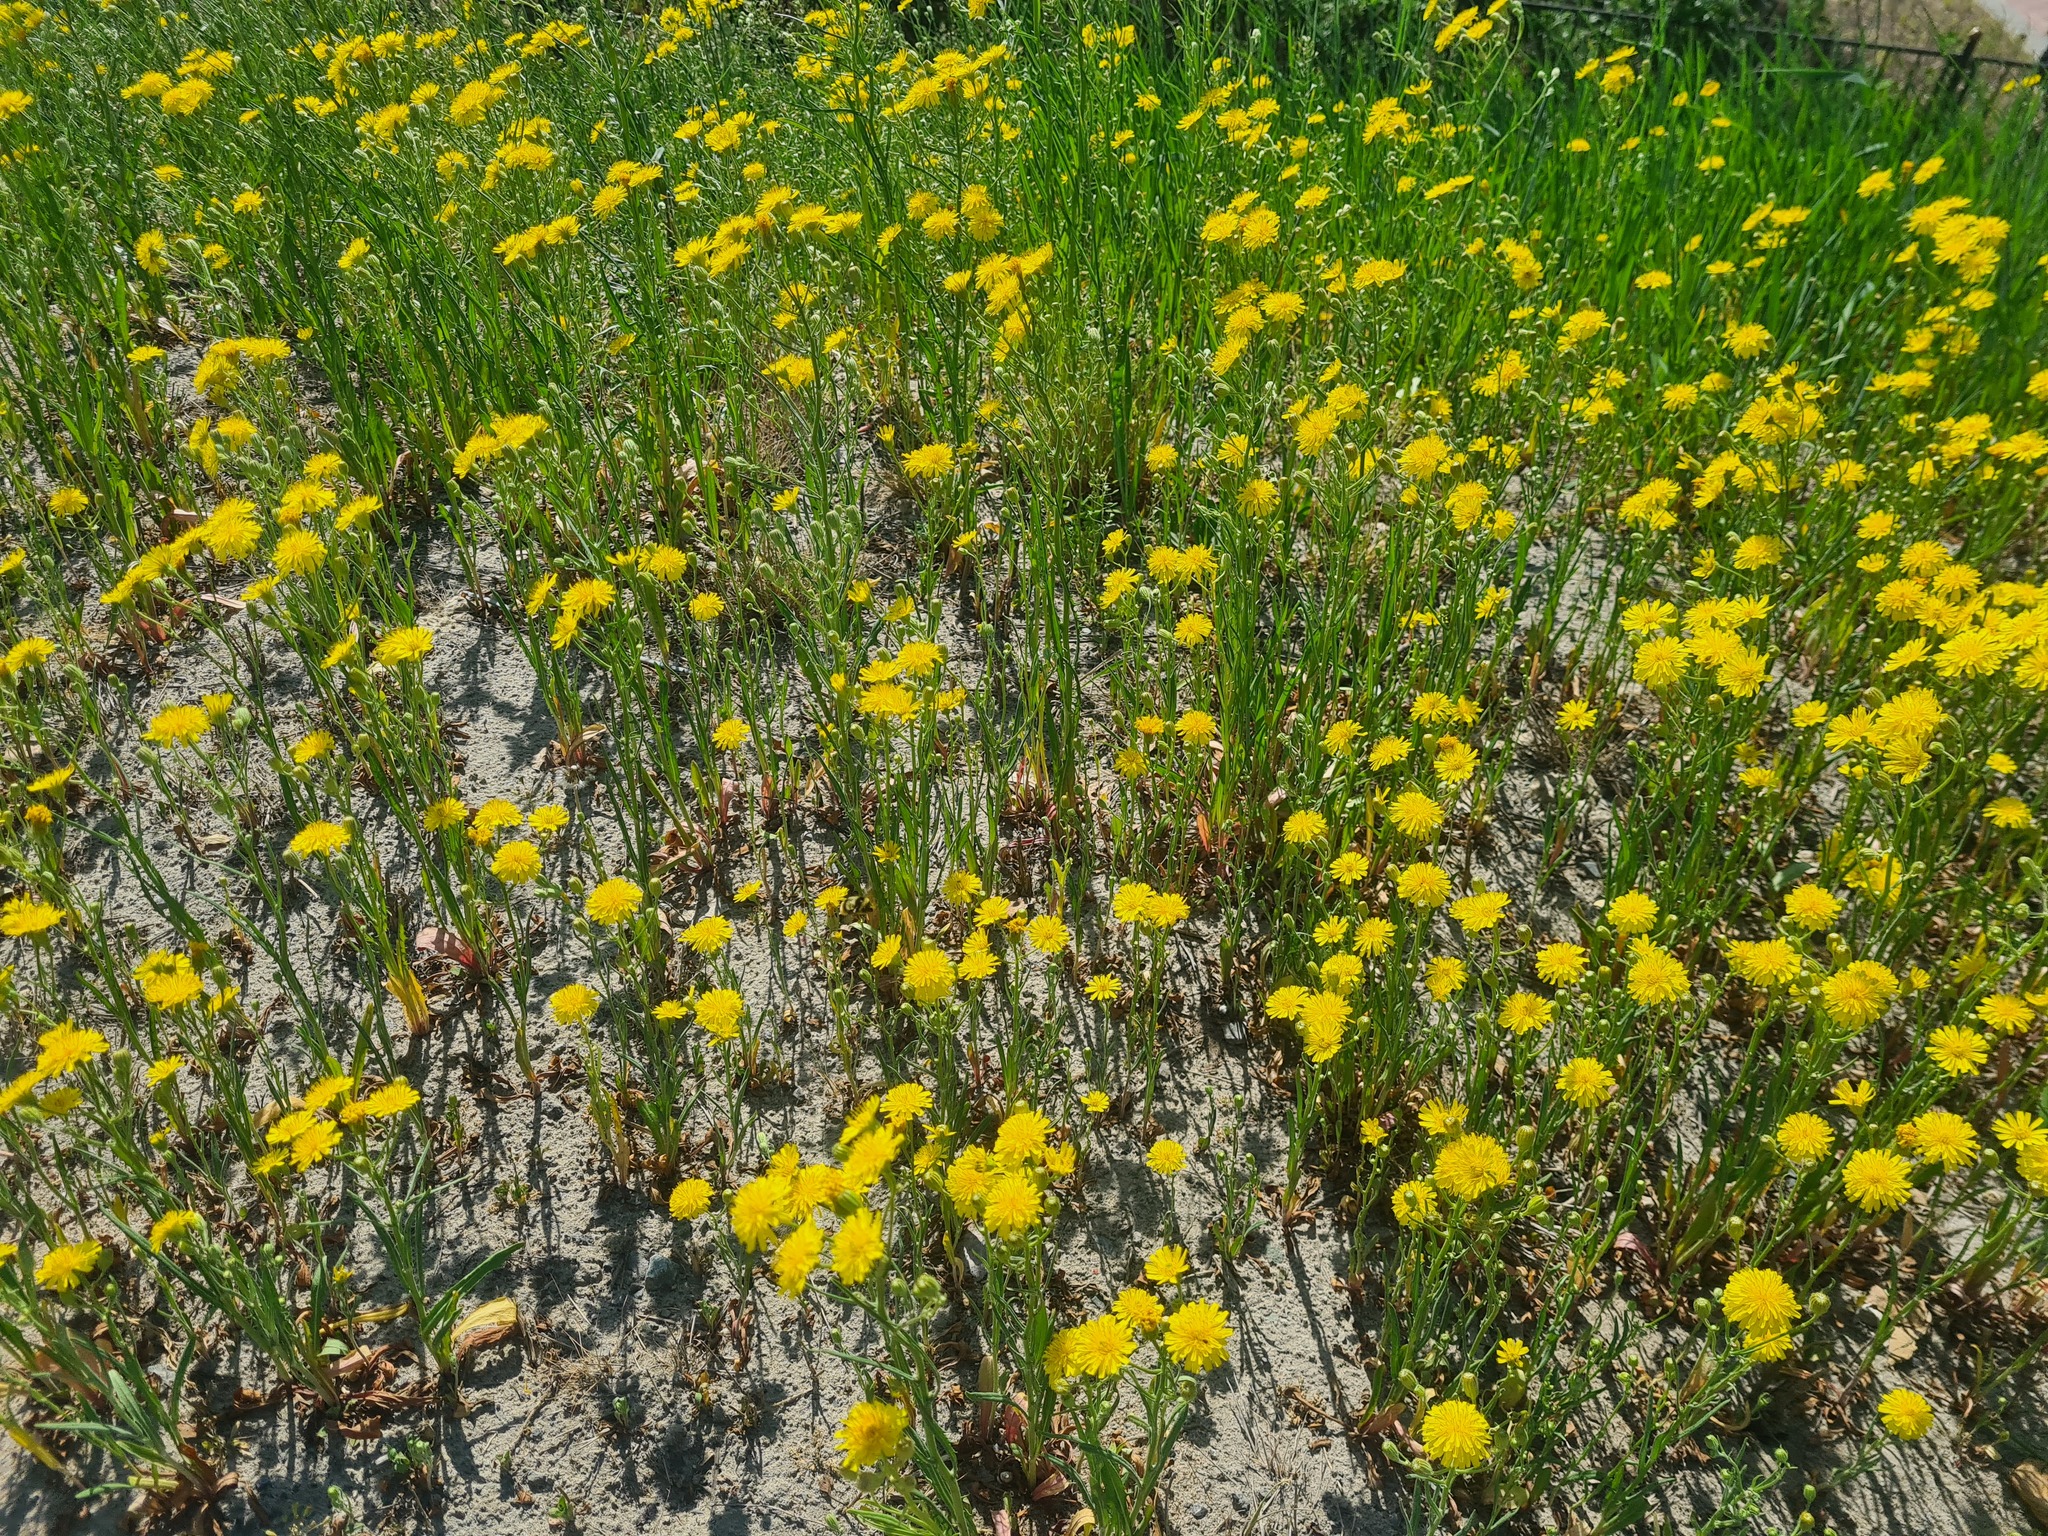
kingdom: Plantae
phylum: Tracheophyta
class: Magnoliopsida
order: Asterales
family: Asteraceae
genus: Crepis
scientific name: Crepis tectorum
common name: Narrow-leaved hawk's-beard
